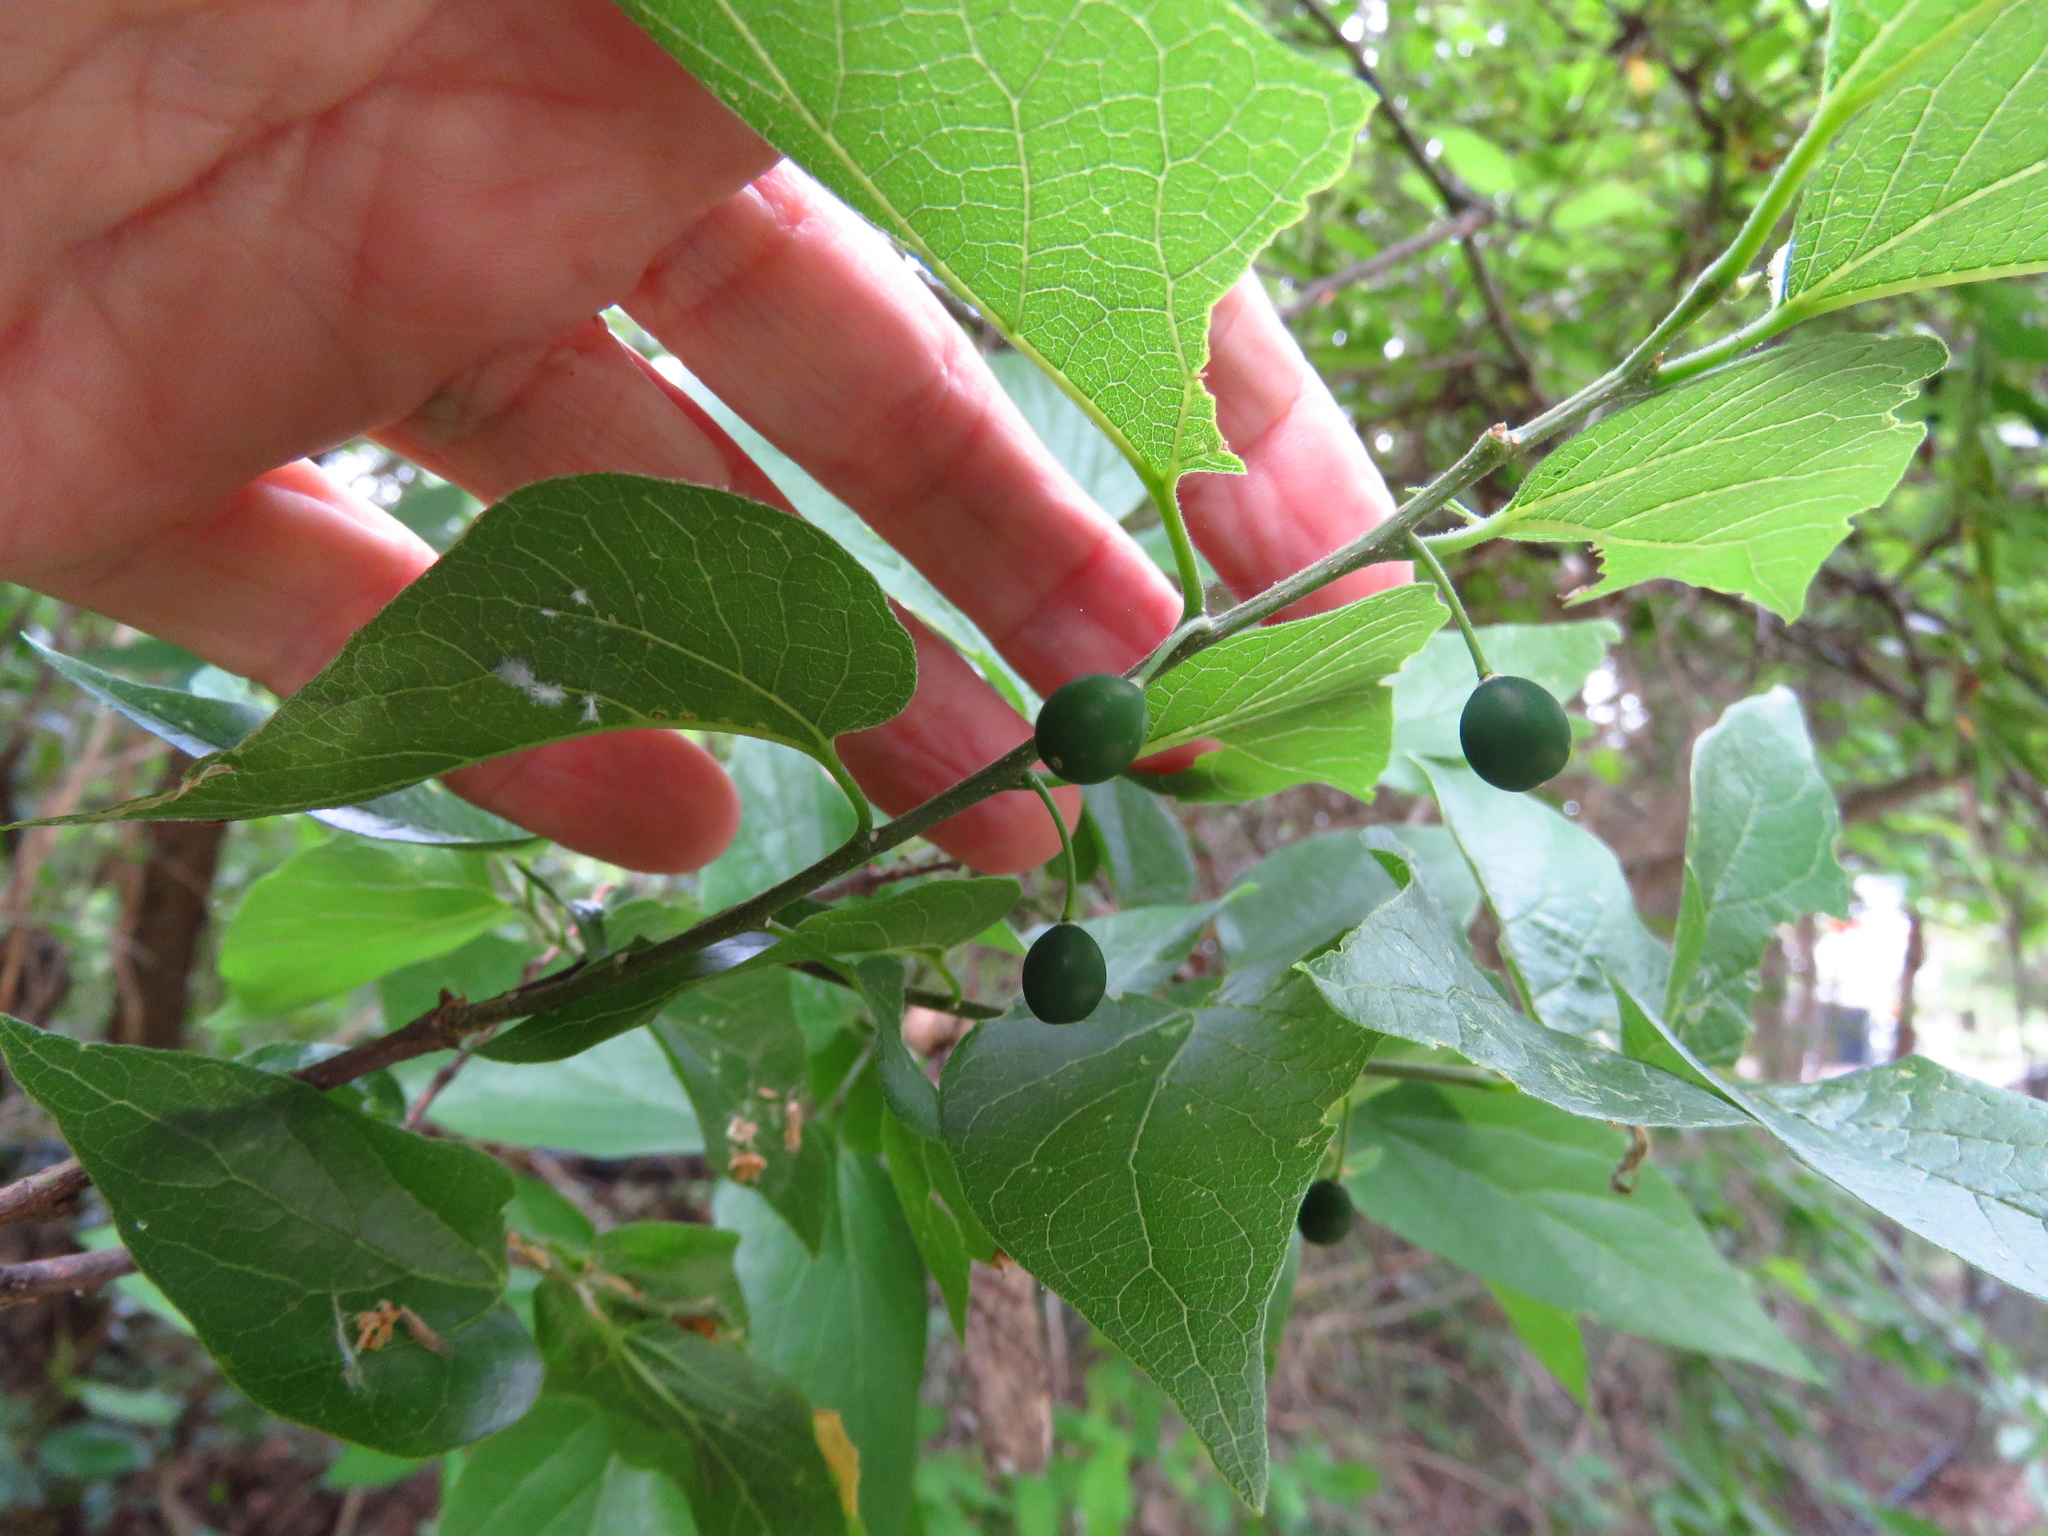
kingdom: Plantae
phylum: Tracheophyta
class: Magnoliopsida
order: Rosales
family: Cannabaceae
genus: Celtis
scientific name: Celtis laevigata
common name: Sugarberry
